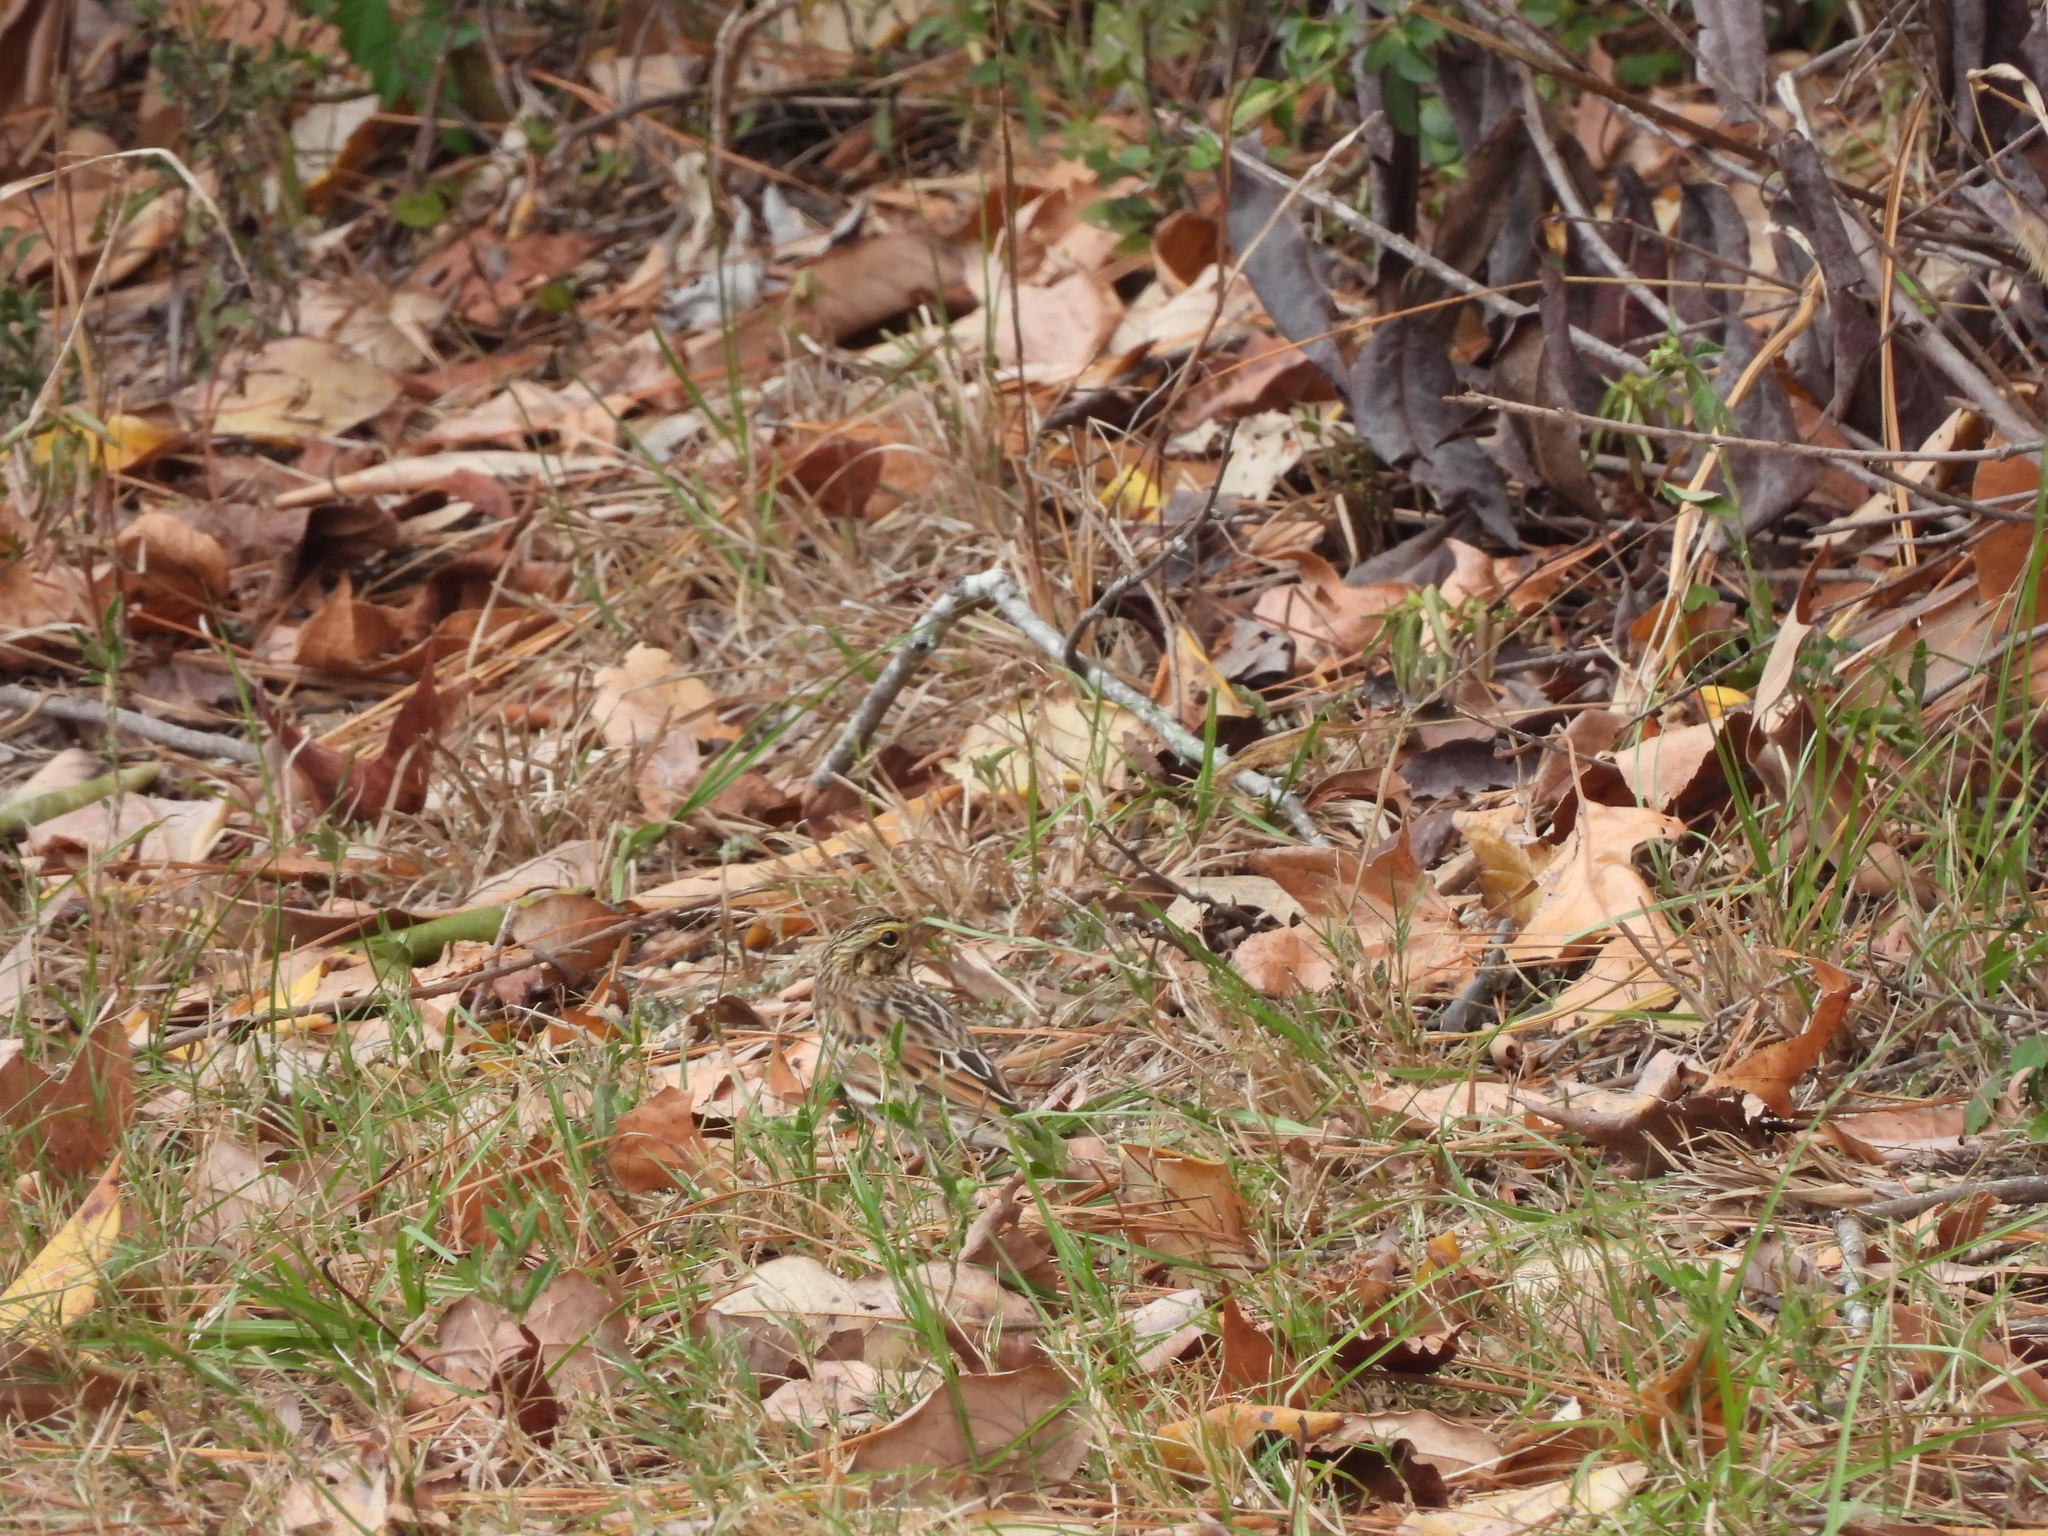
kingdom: Animalia
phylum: Chordata
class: Aves
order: Passeriformes
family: Passerellidae
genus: Passerculus
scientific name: Passerculus sandwichensis
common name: Savannah sparrow
